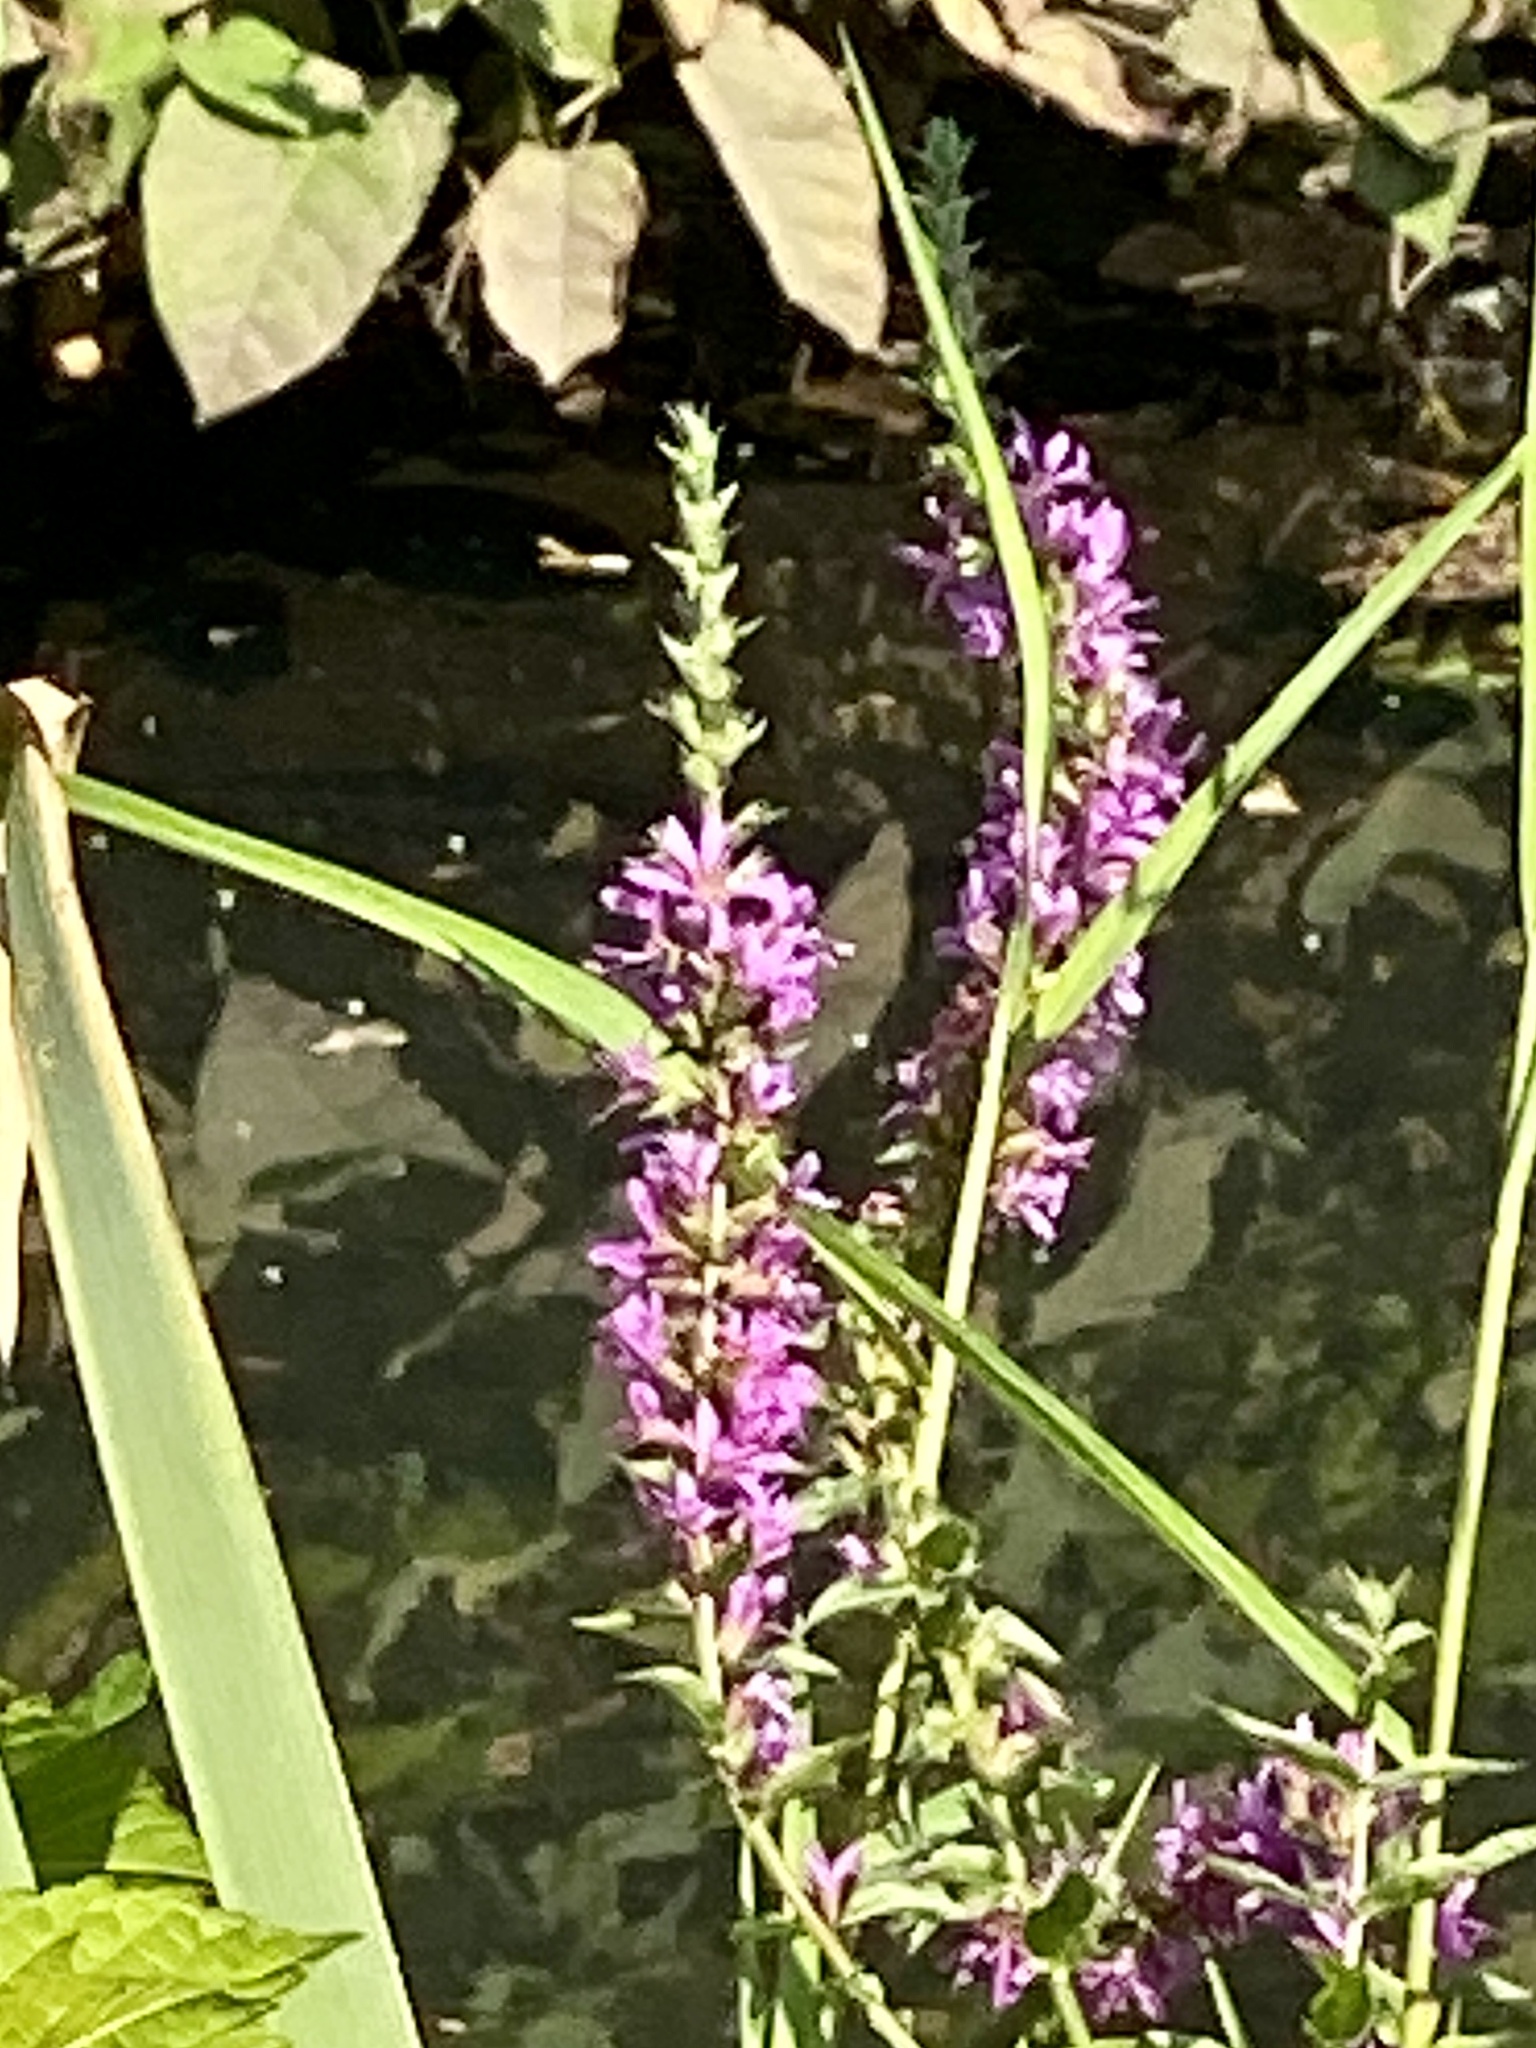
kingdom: Plantae
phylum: Tracheophyta
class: Magnoliopsida
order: Myrtales
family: Lythraceae
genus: Lythrum
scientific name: Lythrum salicaria
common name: Purple loosestrife
